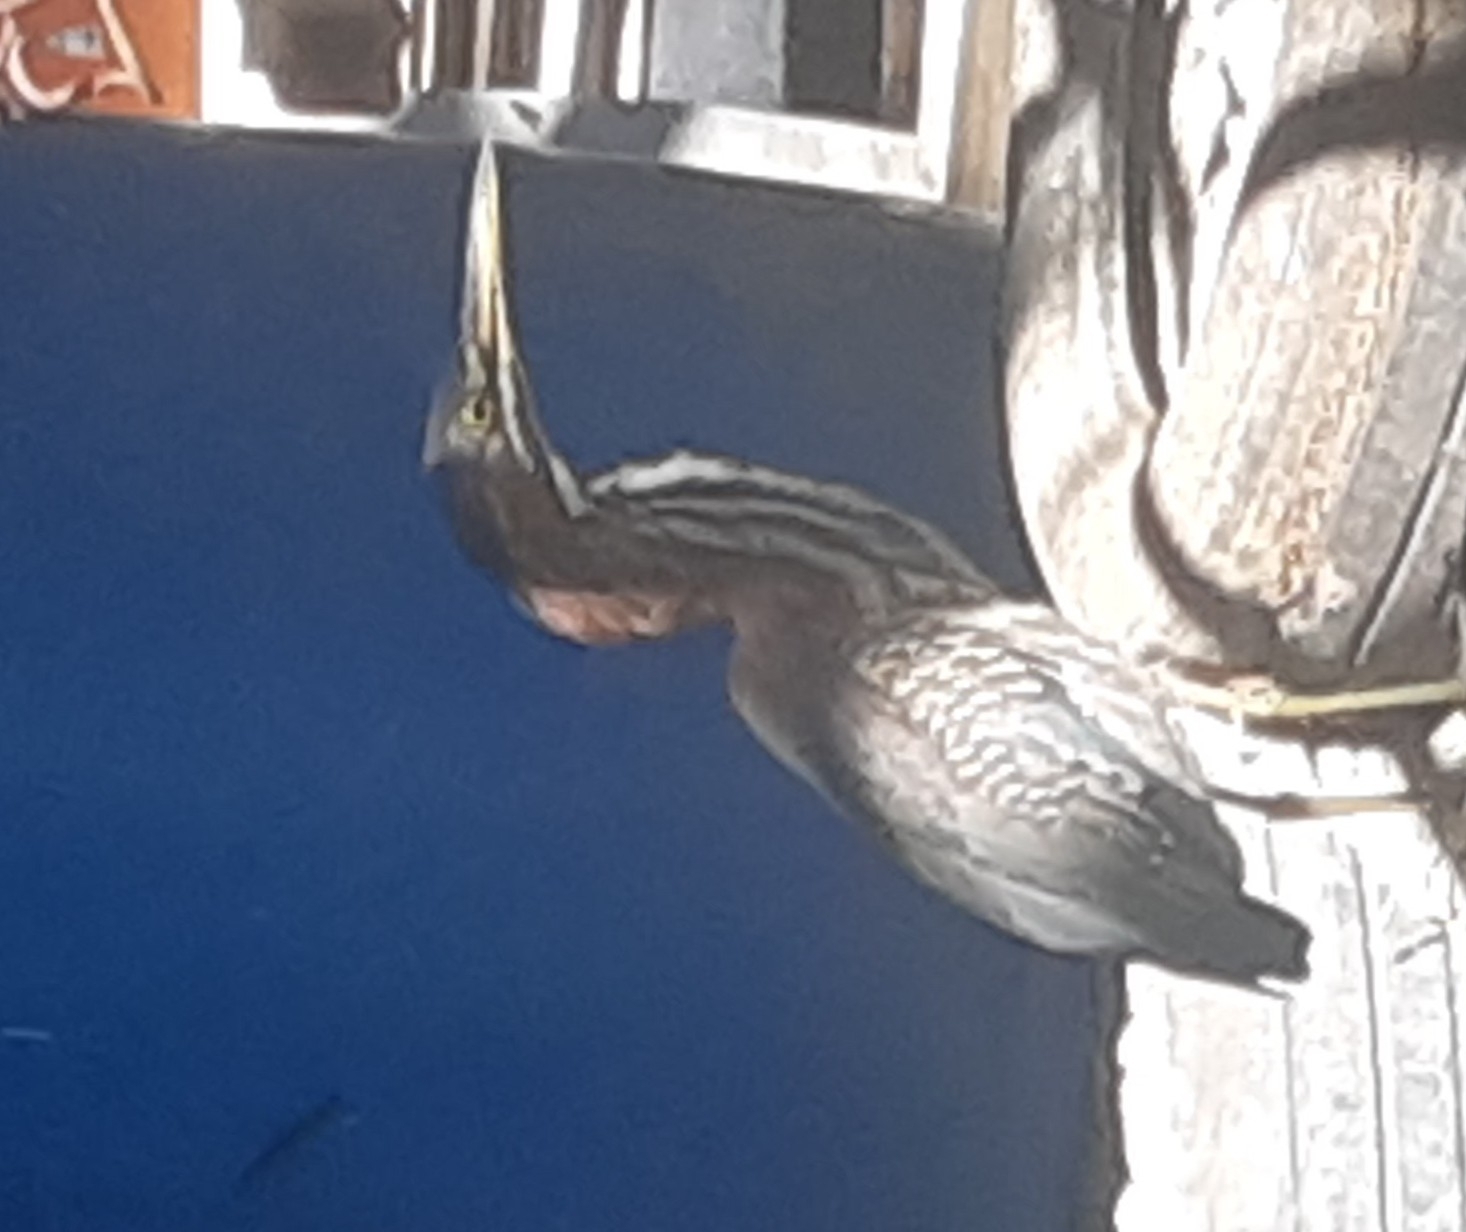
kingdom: Animalia
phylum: Chordata
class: Aves
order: Pelecaniformes
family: Ardeidae
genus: Butorides
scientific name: Butorides virescens
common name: Green heron
